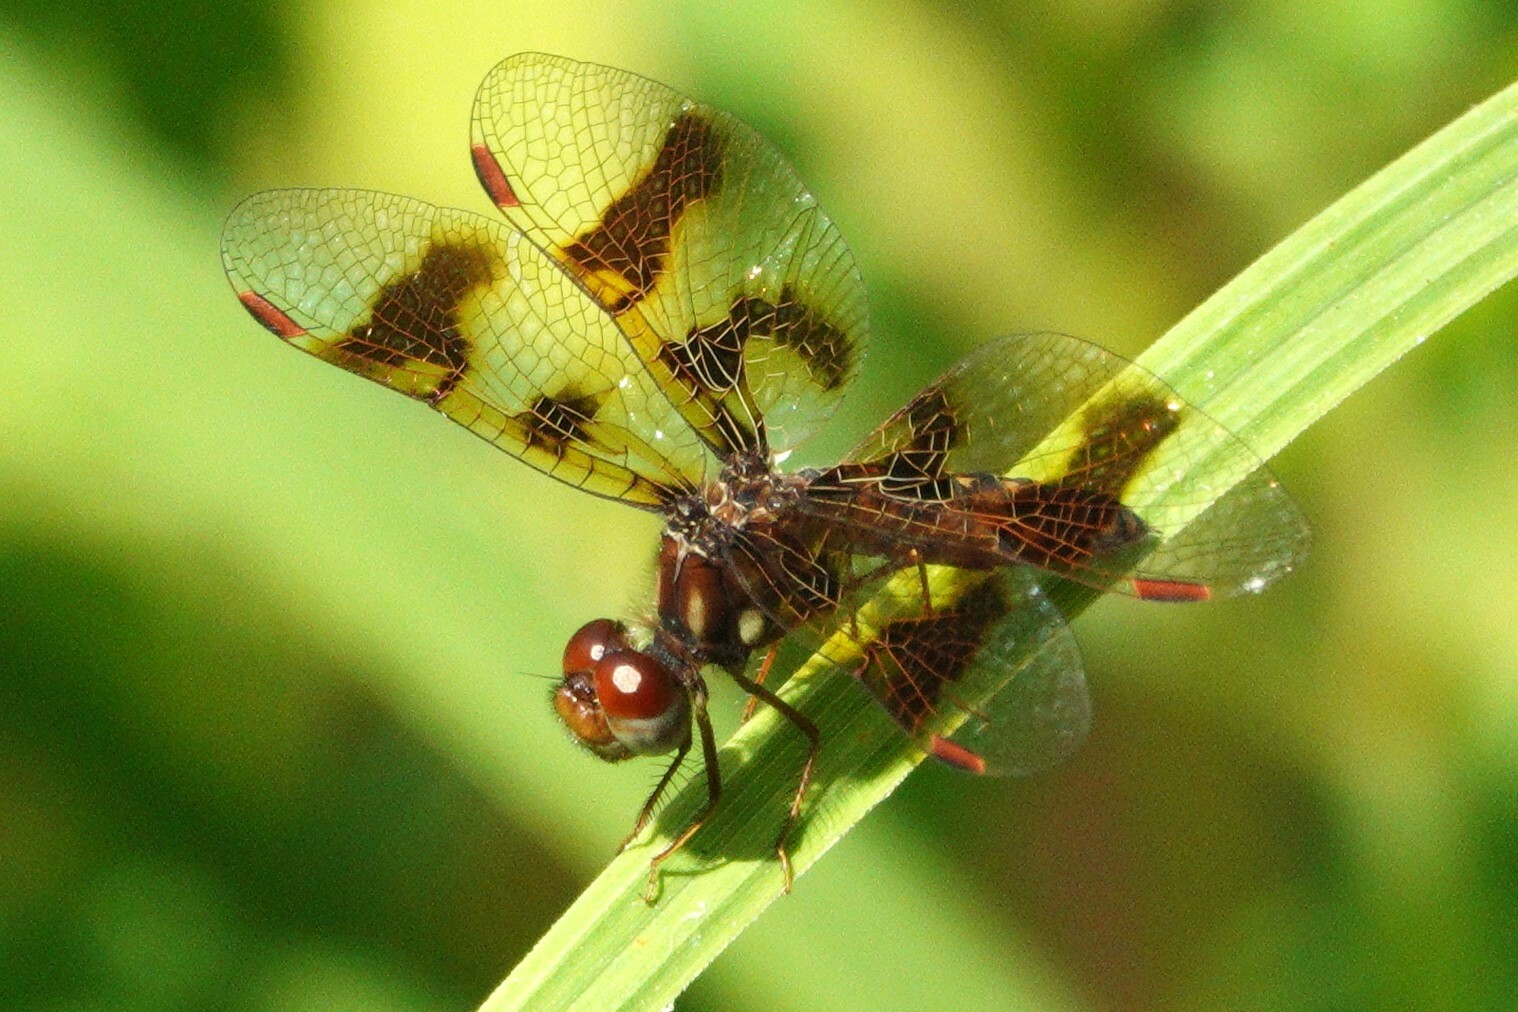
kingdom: Animalia
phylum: Arthropoda
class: Insecta
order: Odonata
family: Libellulidae
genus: Perithemis
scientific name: Perithemis tenera
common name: Eastern amberwing
